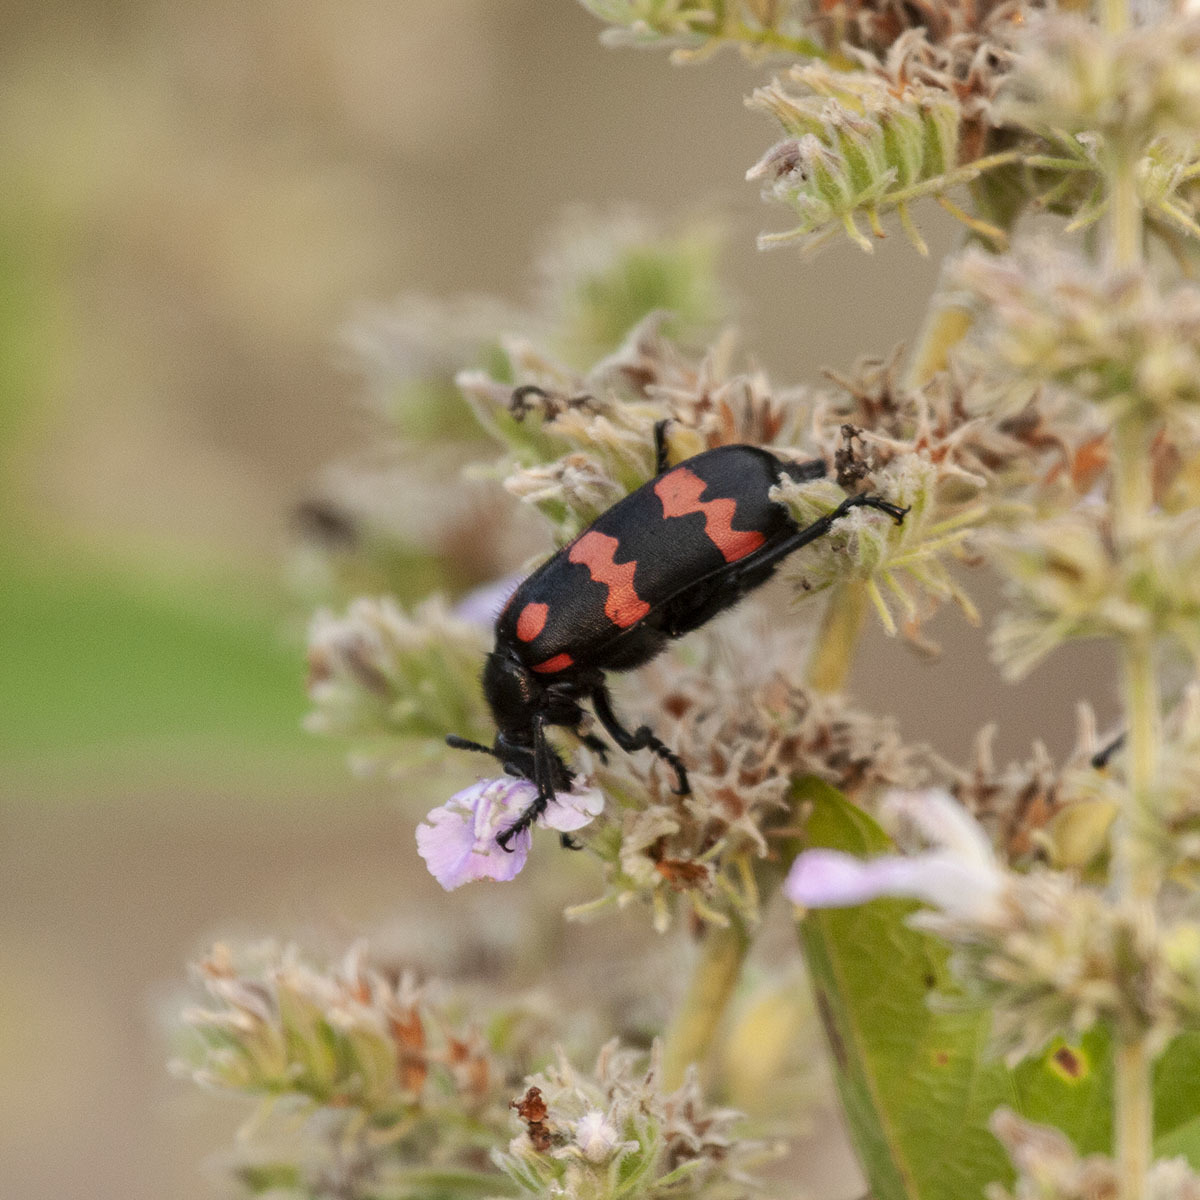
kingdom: Animalia
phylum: Arthropoda
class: Insecta
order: Coleoptera
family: Meloidae
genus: Hycleus
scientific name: Hycleus biundulatus
